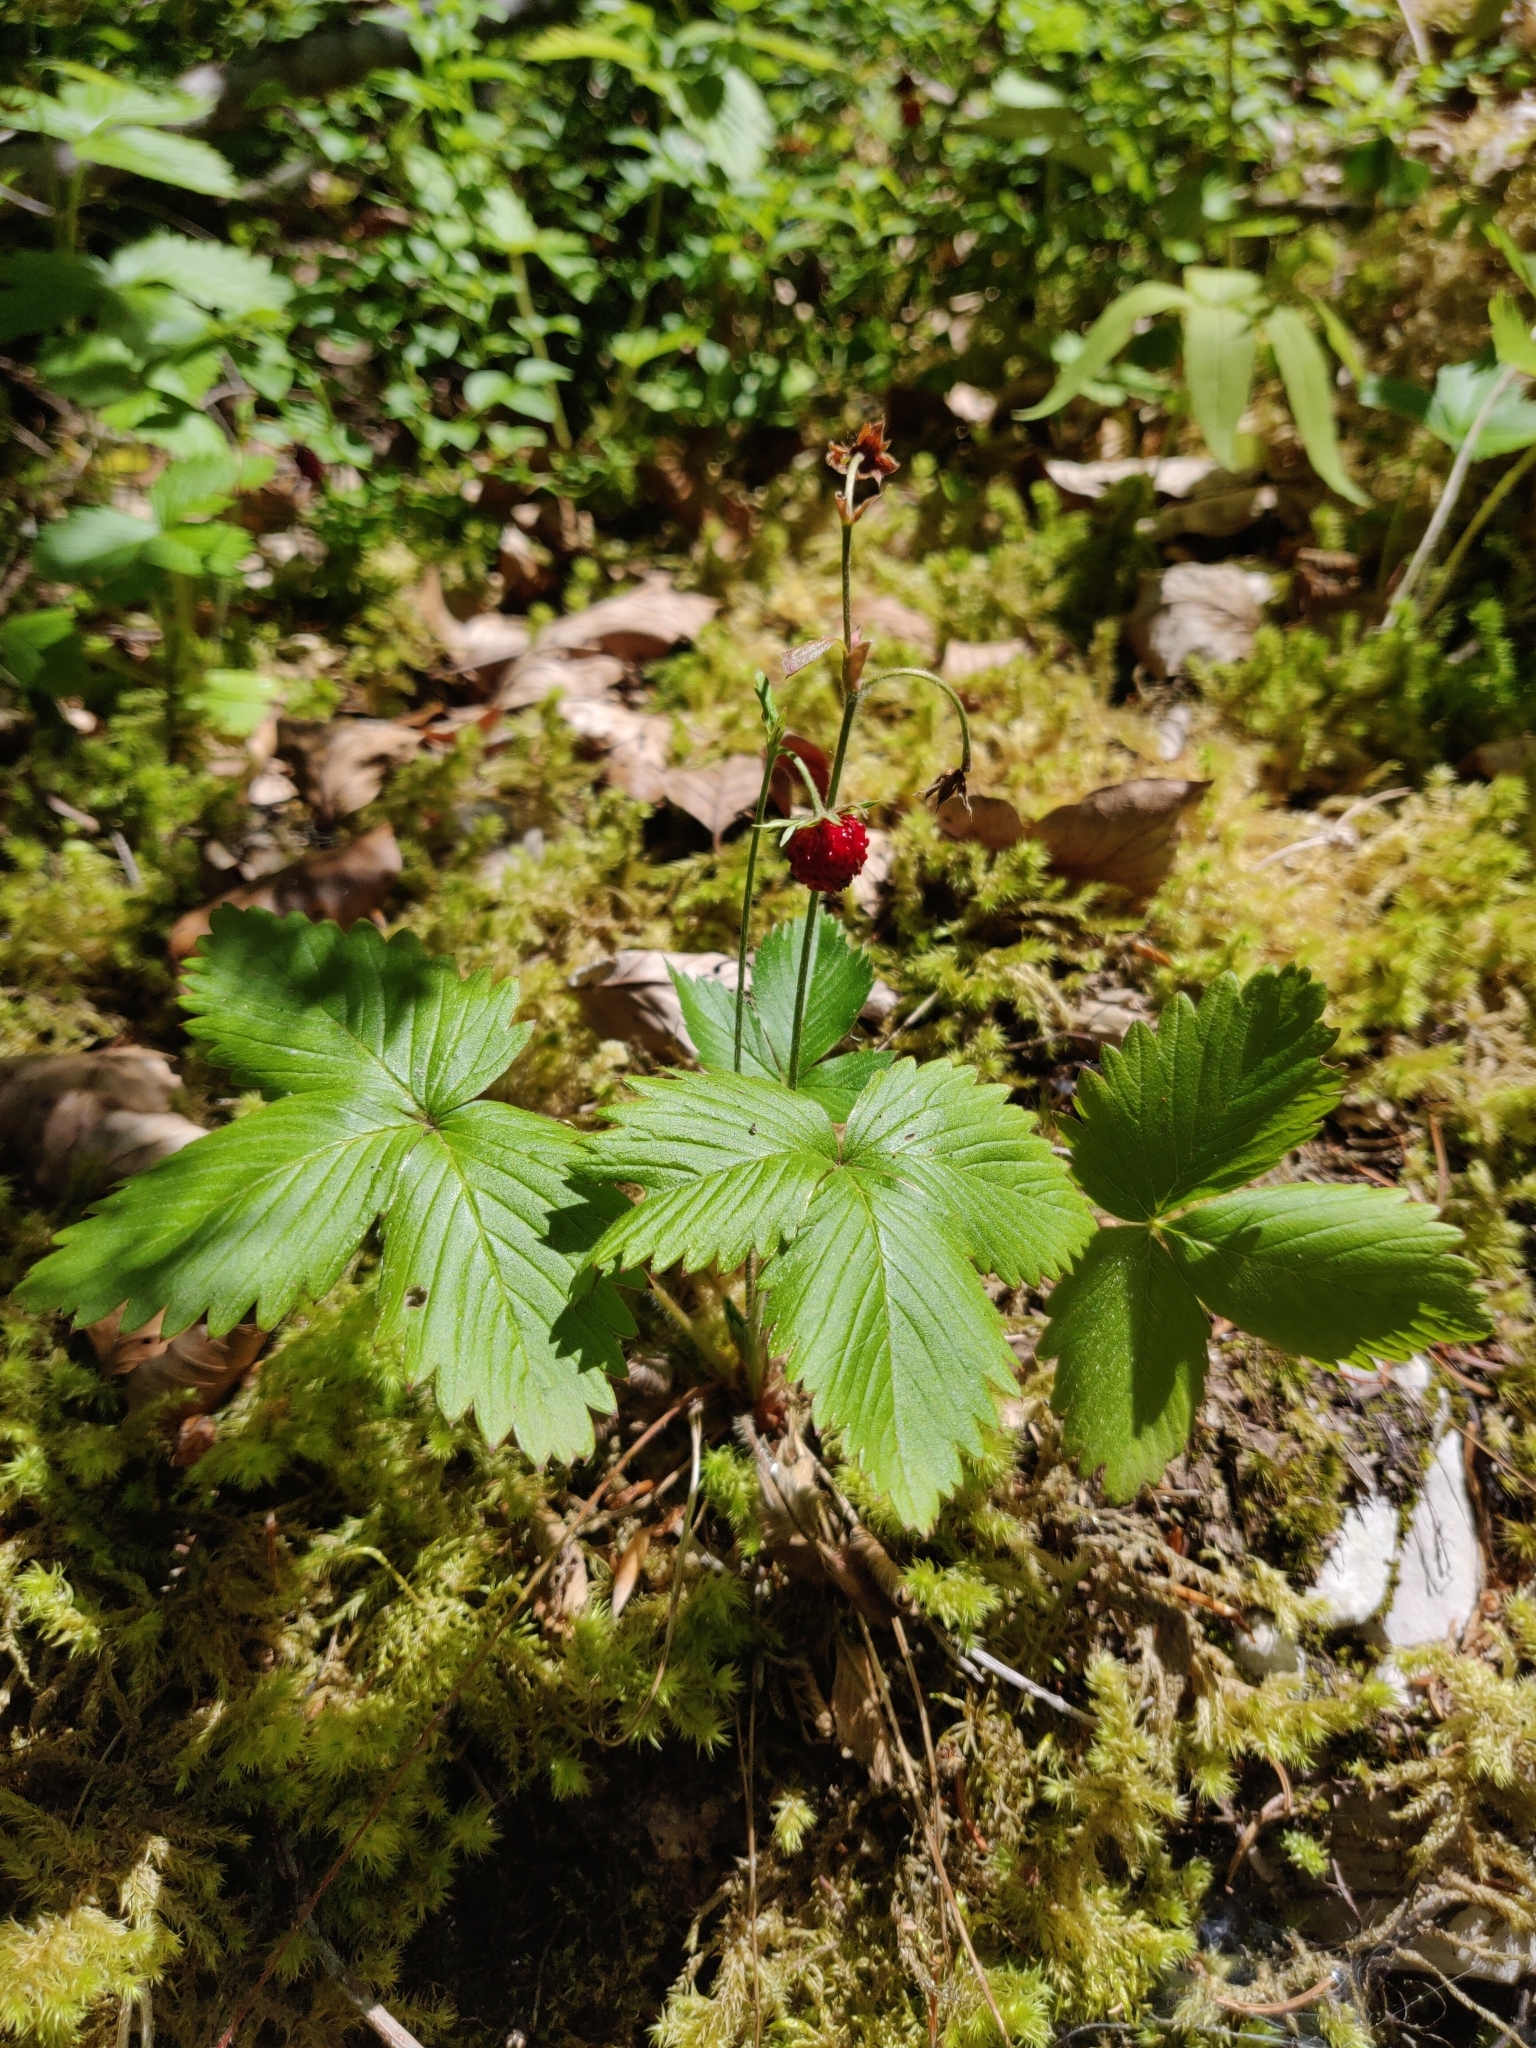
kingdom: Plantae
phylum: Tracheophyta
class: Magnoliopsida
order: Rosales
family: Rosaceae
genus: Fragaria
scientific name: Fragaria vesca
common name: Wild strawberry
